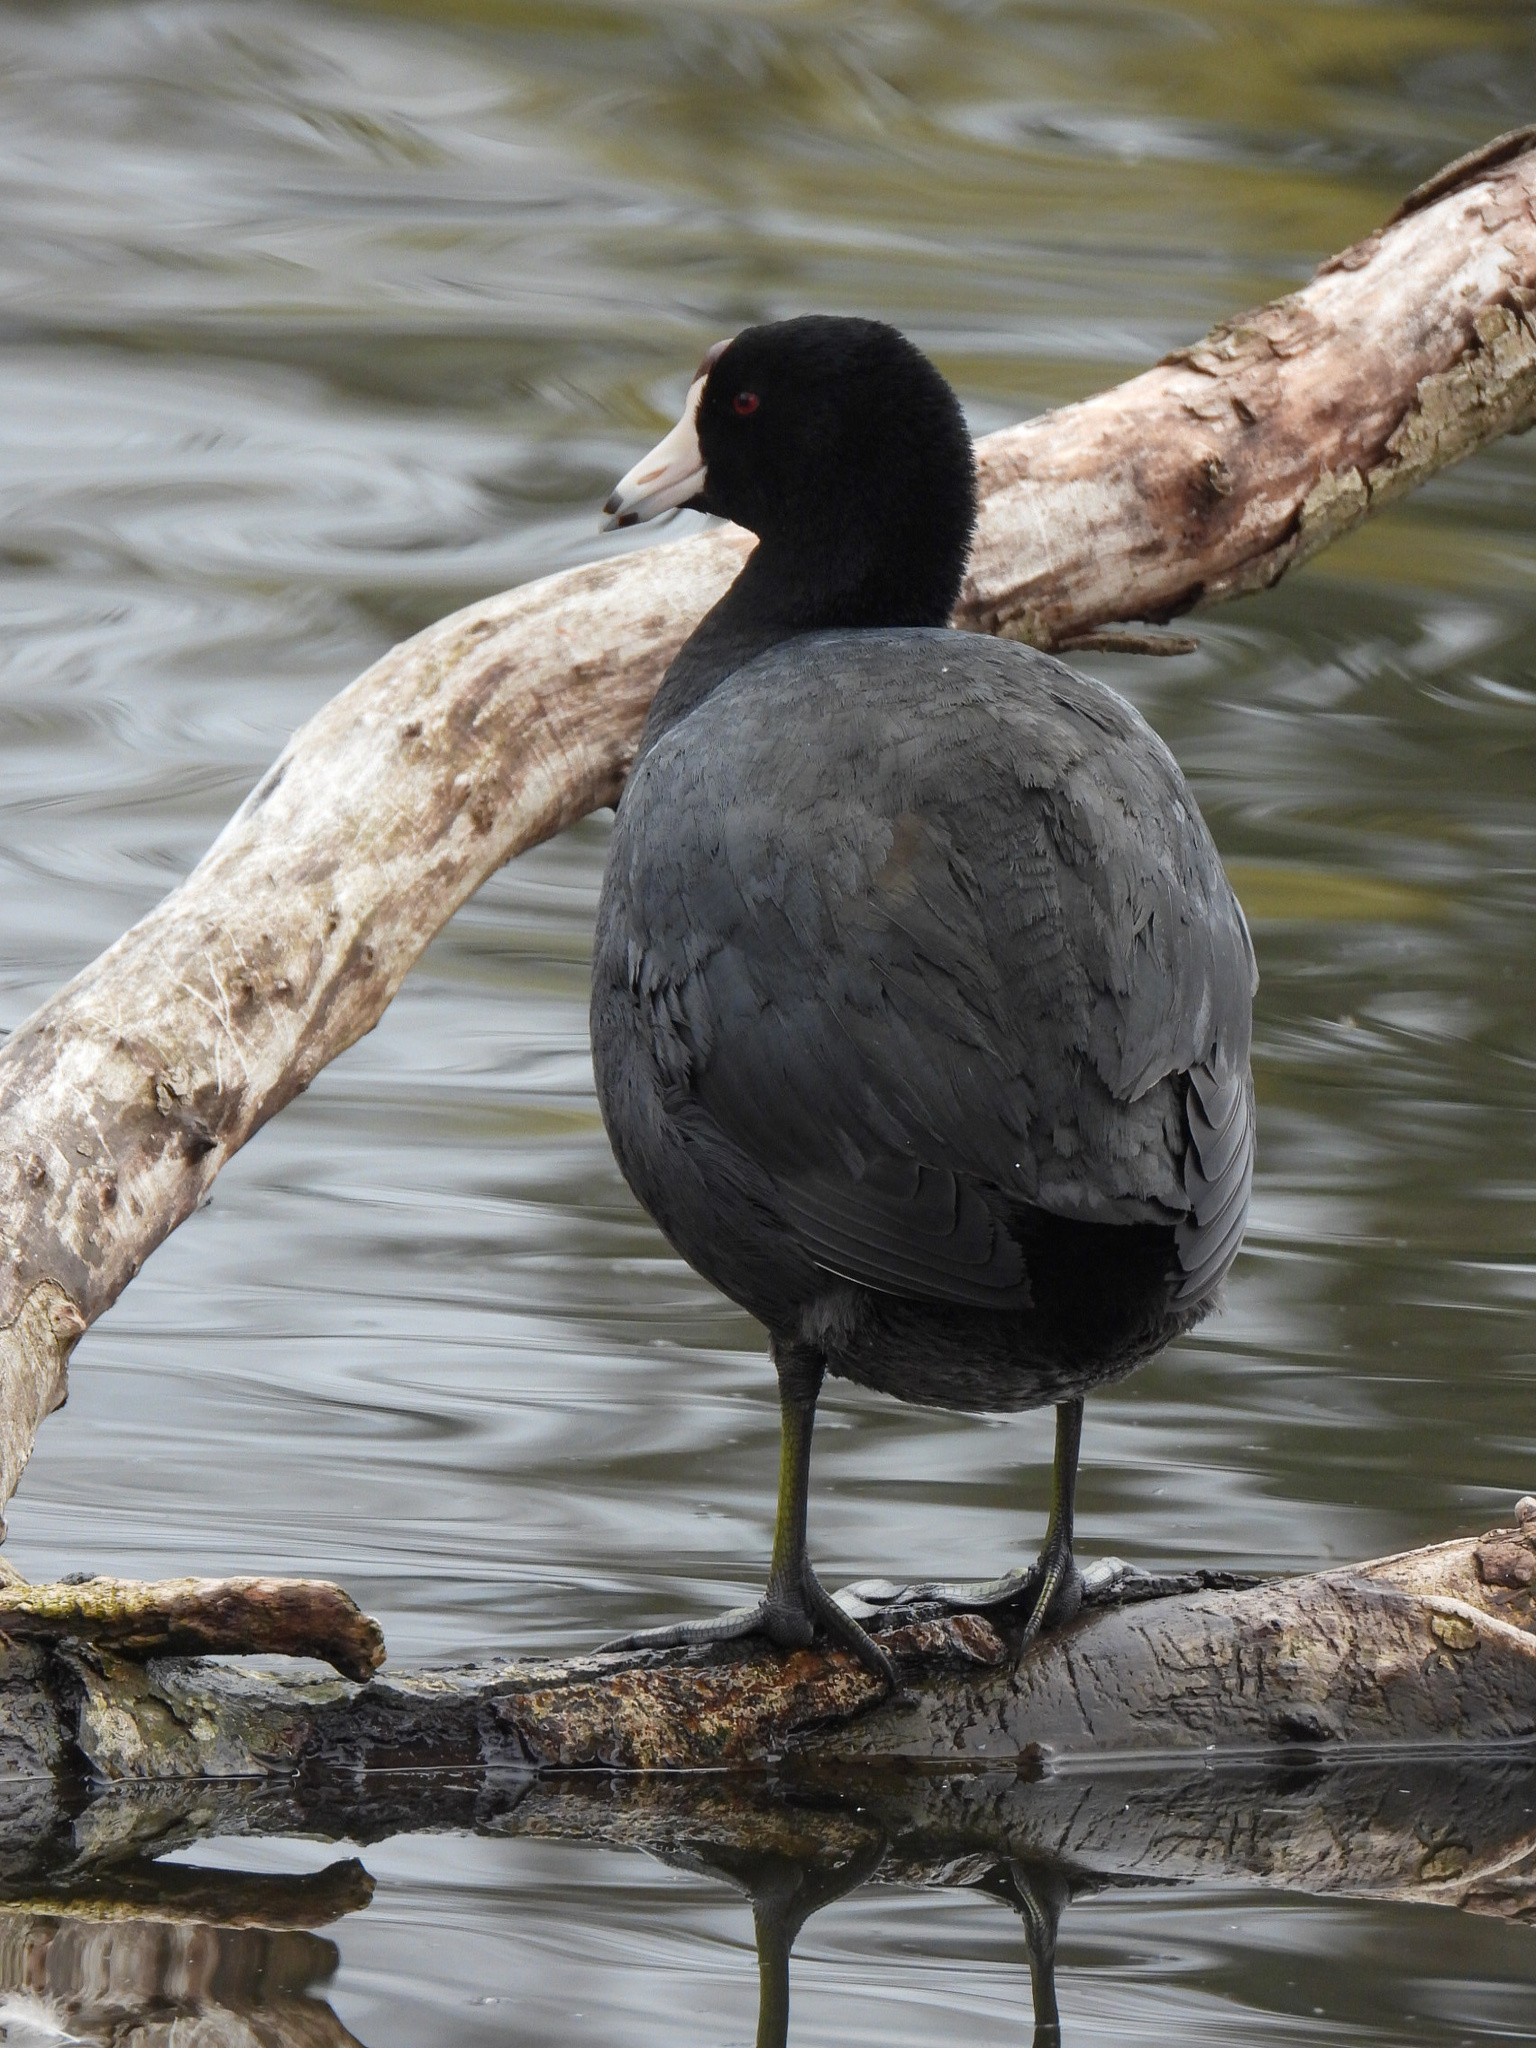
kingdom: Animalia
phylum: Chordata
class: Aves
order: Gruiformes
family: Rallidae
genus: Fulica
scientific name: Fulica americana
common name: American coot
